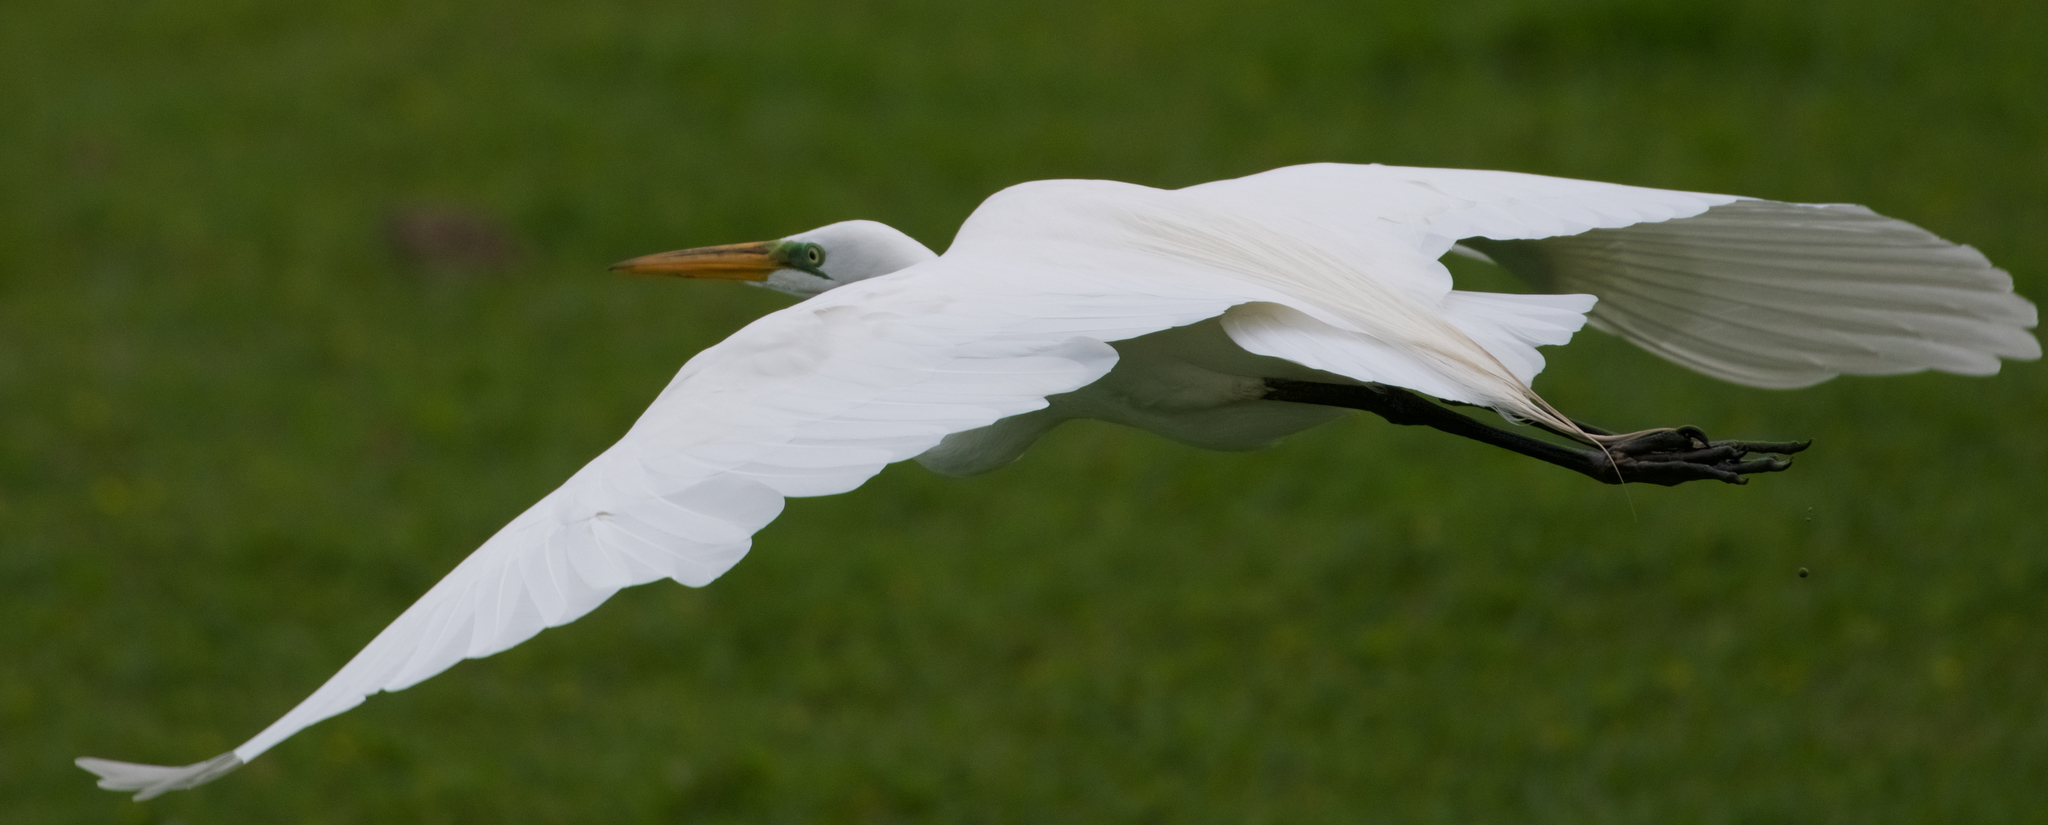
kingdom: Animalia
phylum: Chordata
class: Aves
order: Pelecaniformes
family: Ardeidae
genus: Ardea
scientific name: Ardea alba
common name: Great egret
